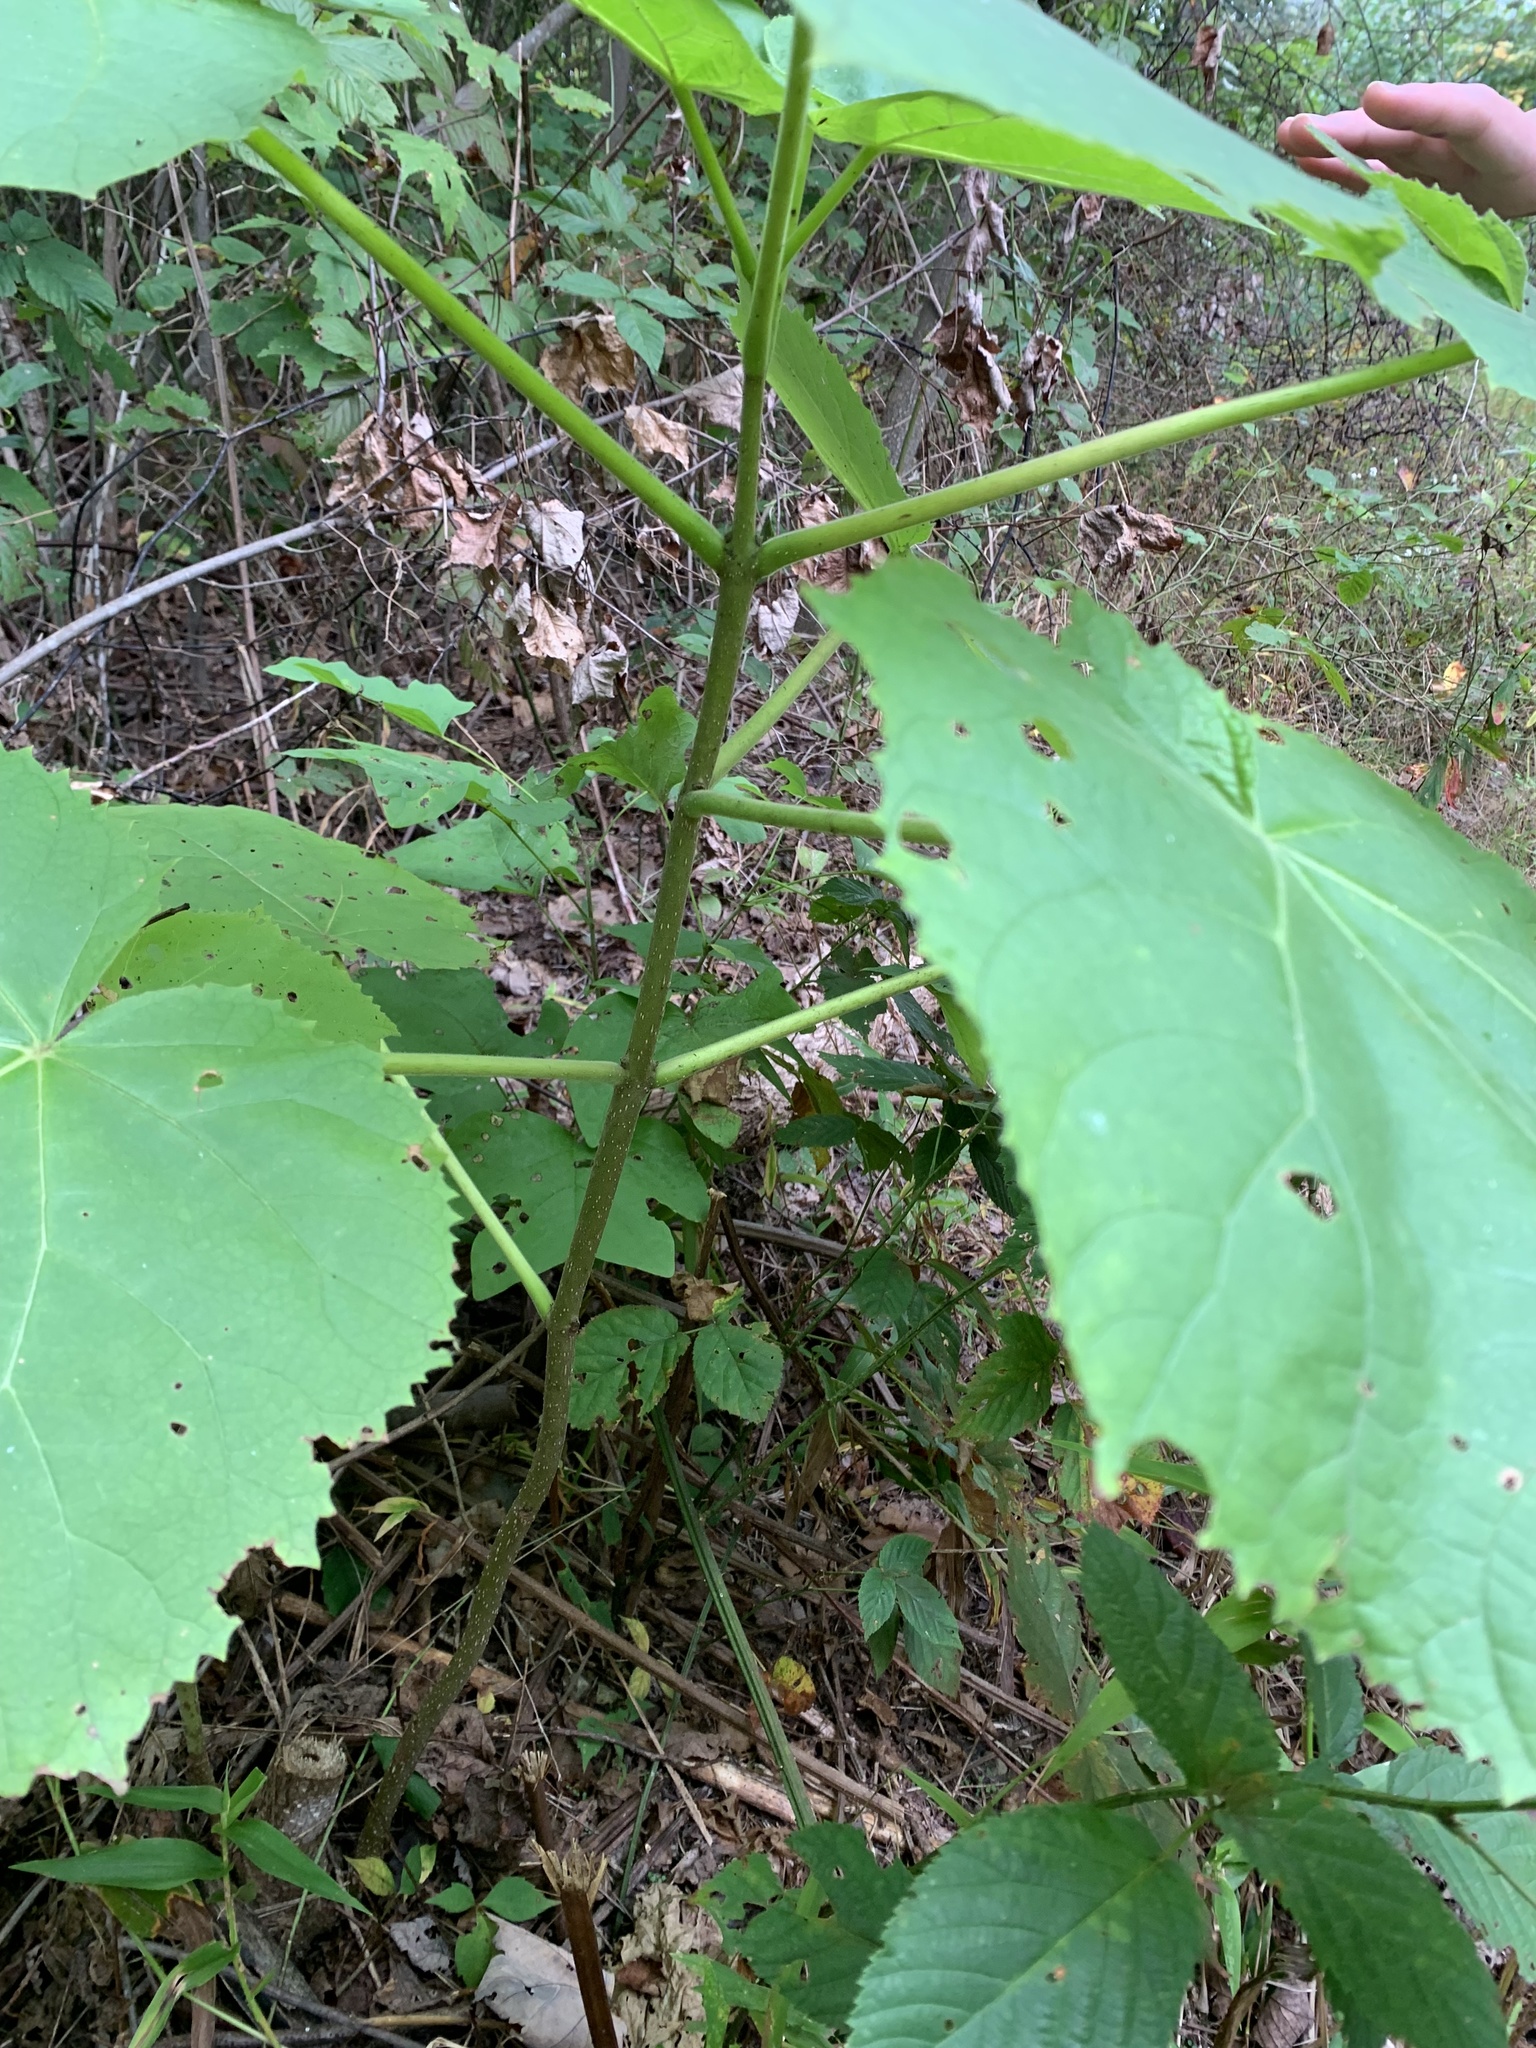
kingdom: Plantae
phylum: Tracheophyta
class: Magnoliopsida
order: Lamiales
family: Paulowniaceae
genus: Paulownia
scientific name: Paulownia tomentosa
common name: Foxglove-tree
